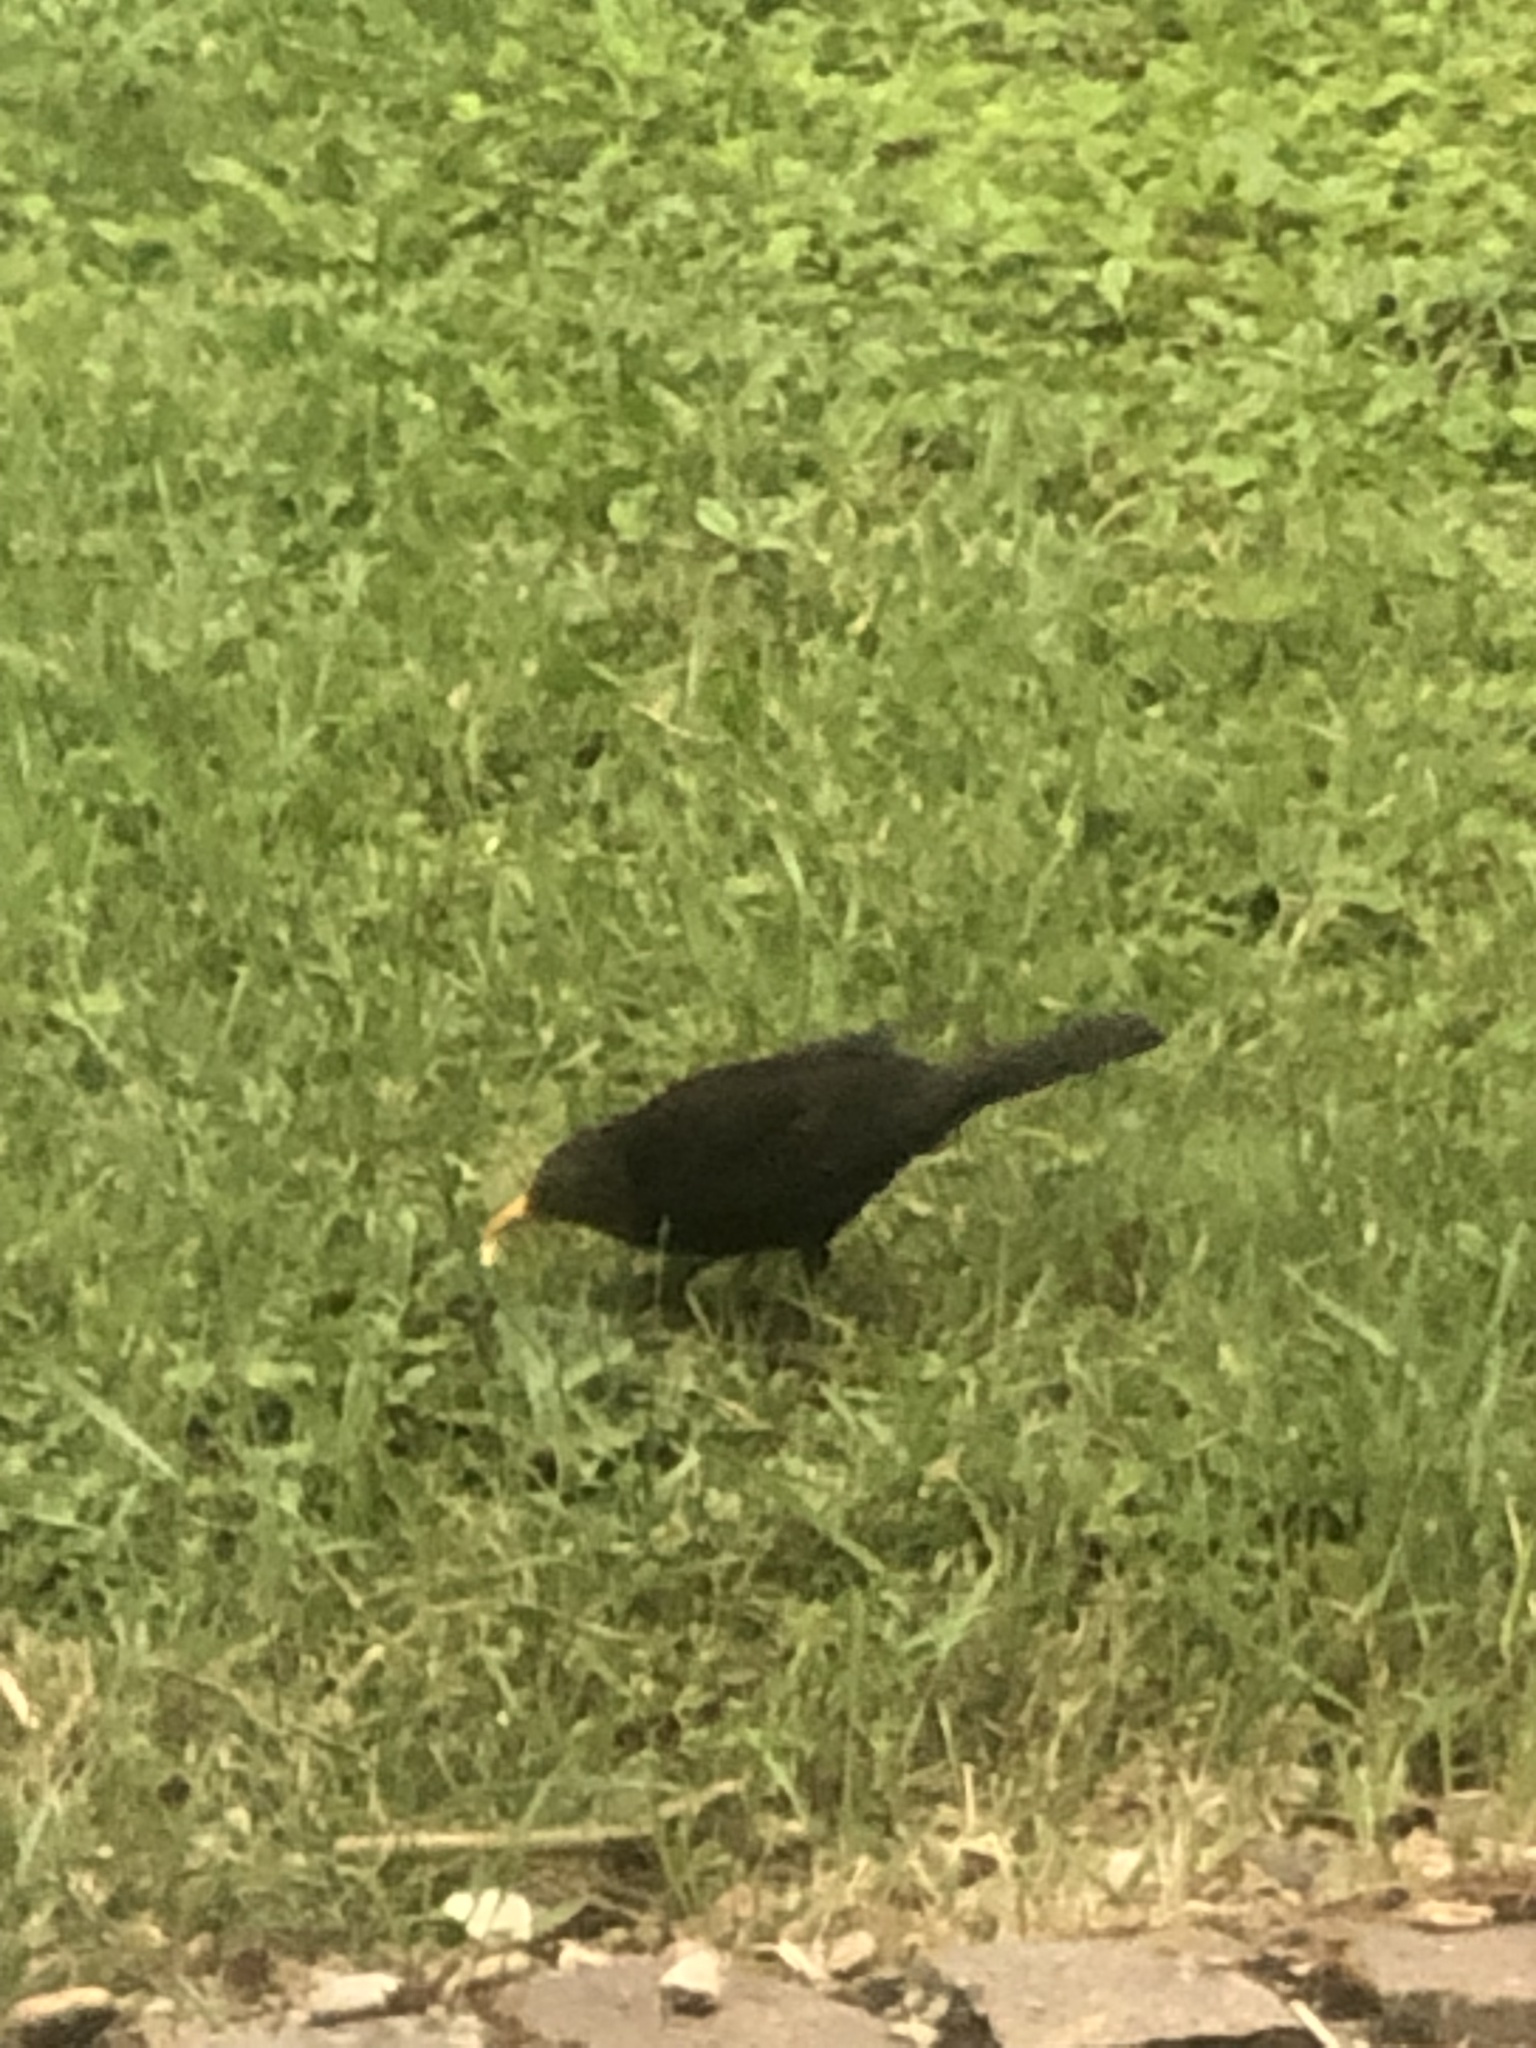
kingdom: Animalia
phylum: Chordata
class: Aves
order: Passeriformes
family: Turdidae
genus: Turdus
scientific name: Turdus merula
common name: Common blackbird
